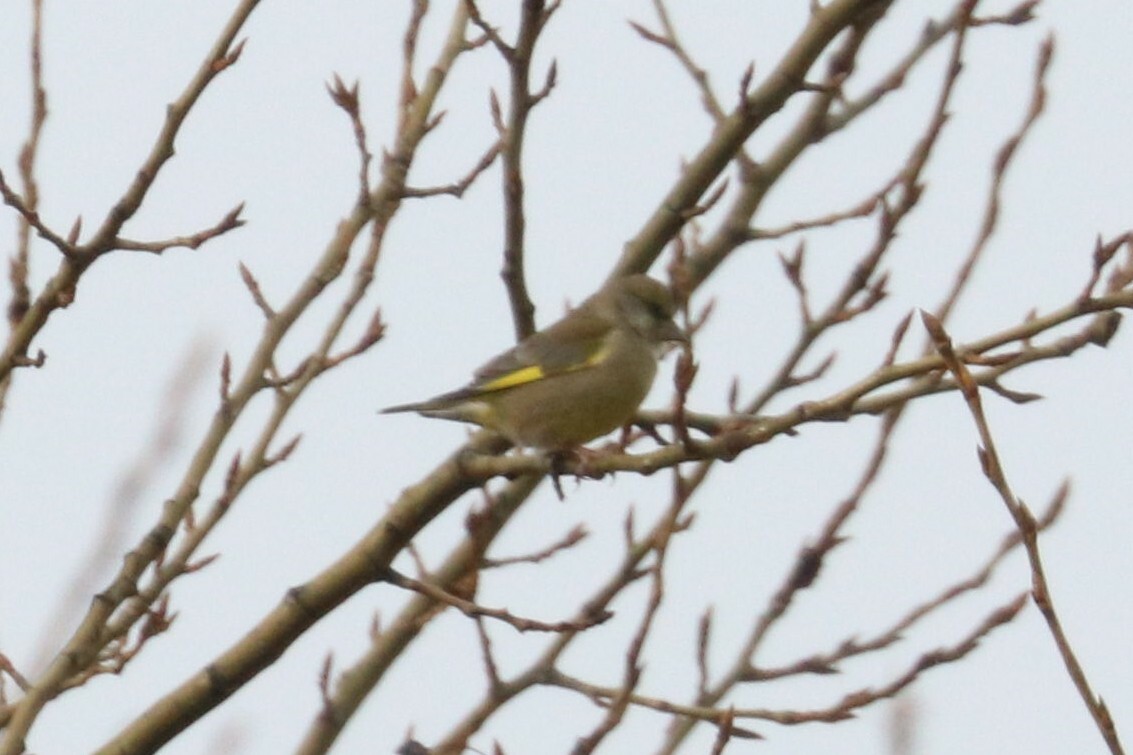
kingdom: Plantae
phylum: Tracheophyta
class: Liliopsida
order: Poales
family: Poaceae
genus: Chloris
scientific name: Chloris chloris
